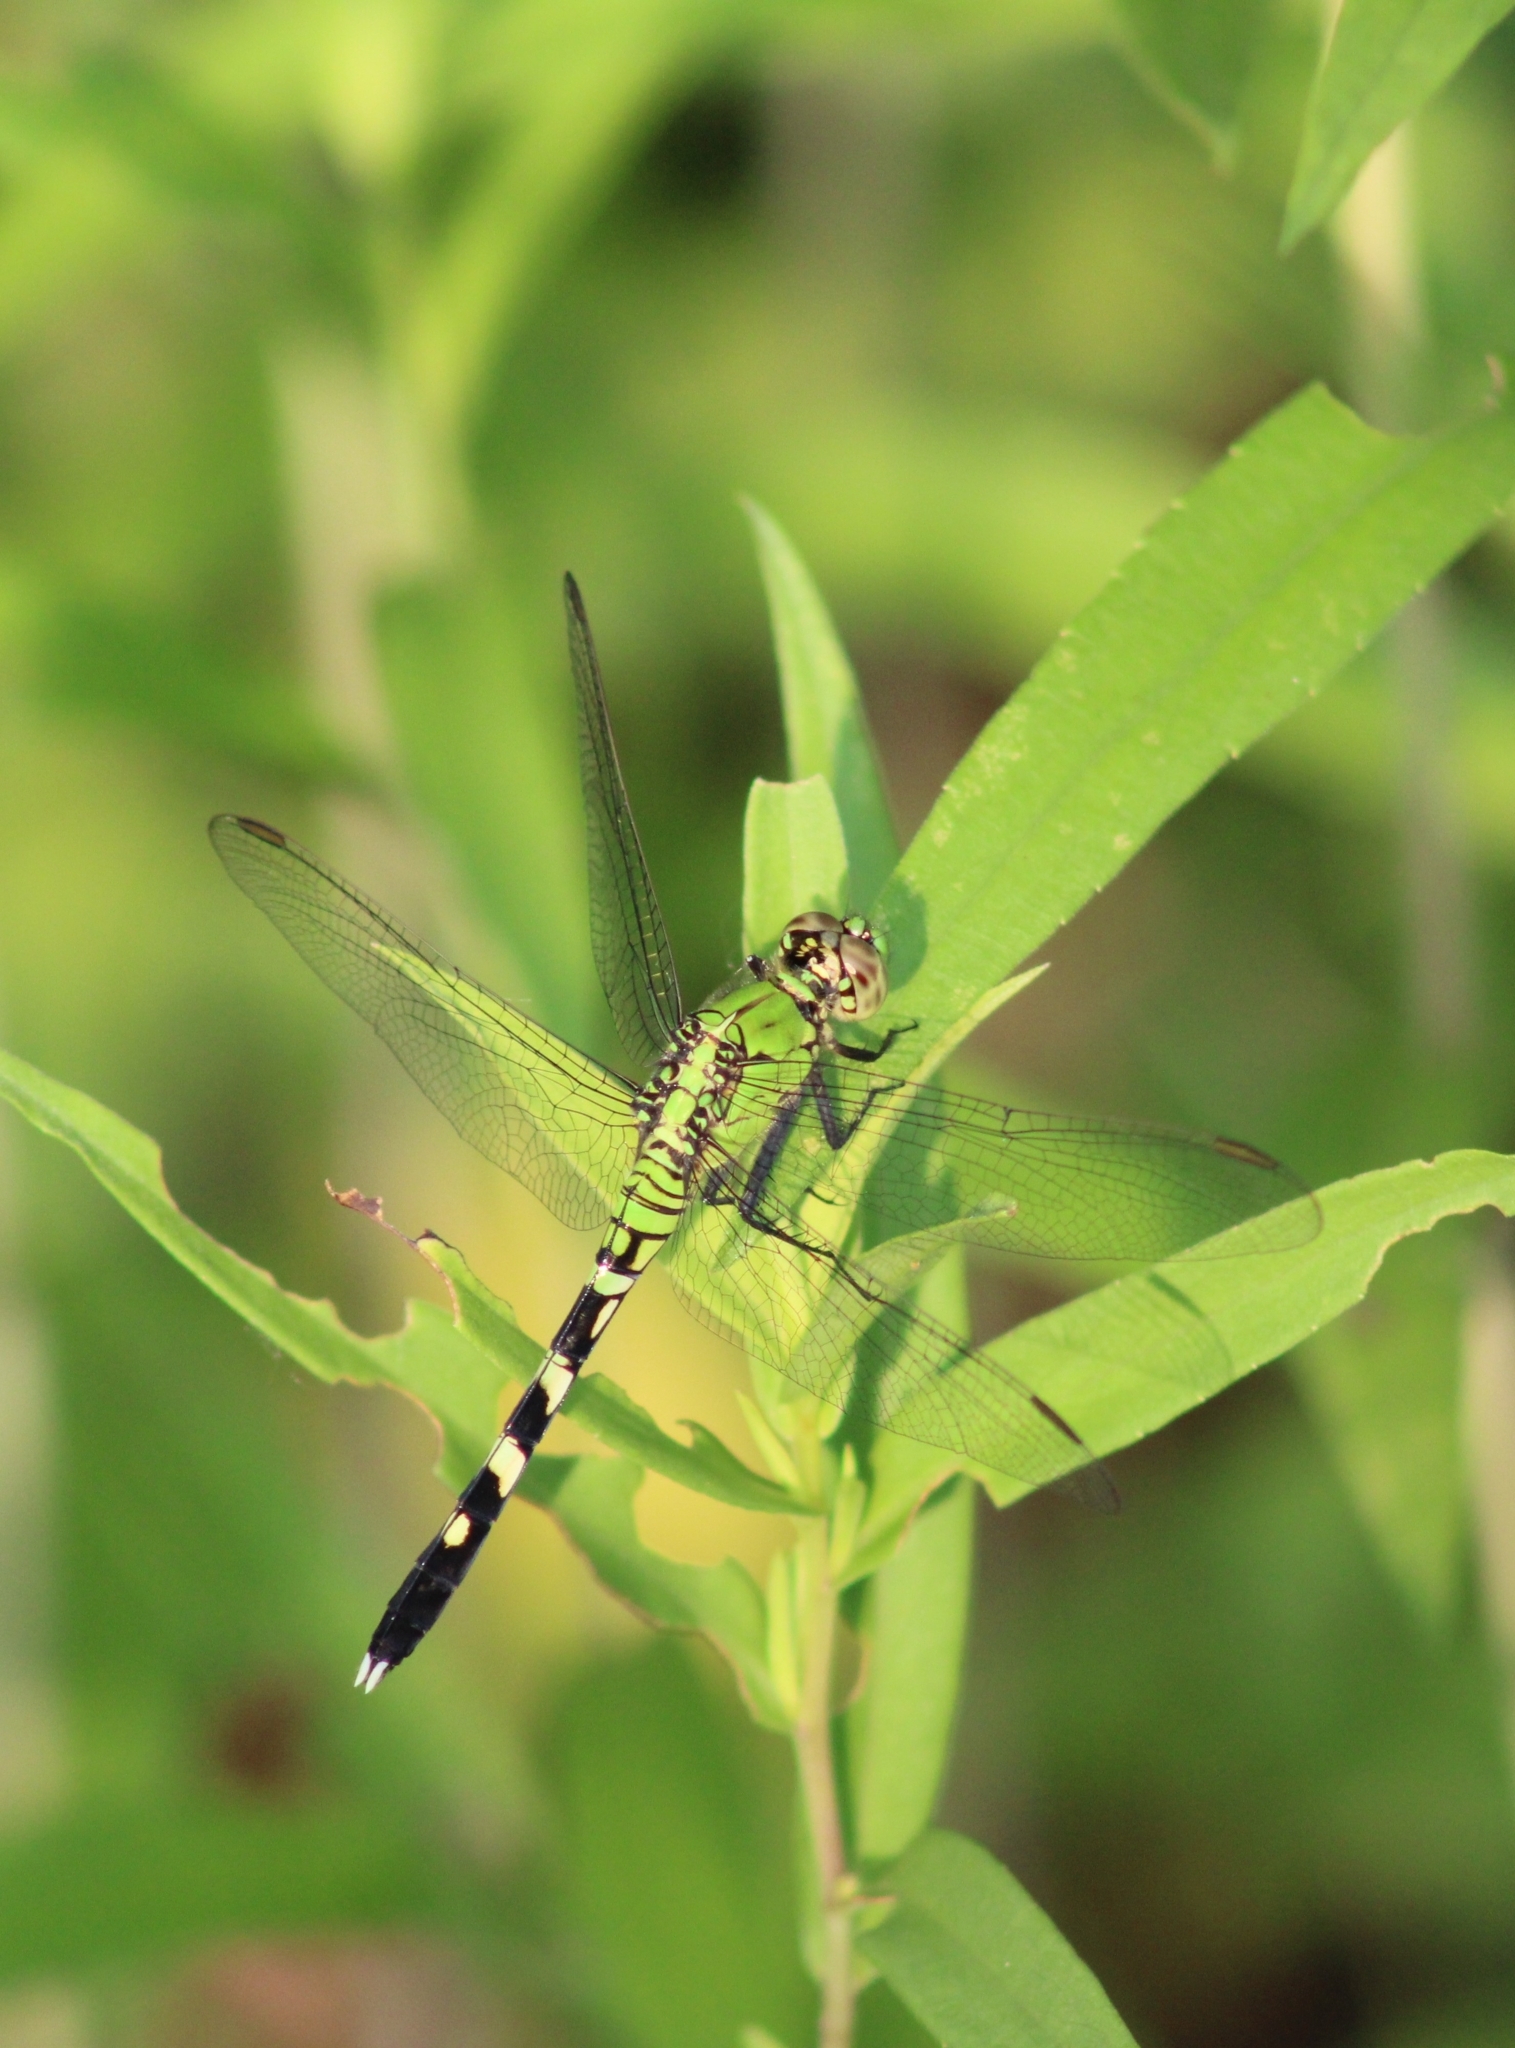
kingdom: Animalia
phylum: Arthropoda
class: Insecta
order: Odonata
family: Libellulidae
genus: Erythemis
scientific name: Erythemis simplicicollis
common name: Eastern pondhawk
